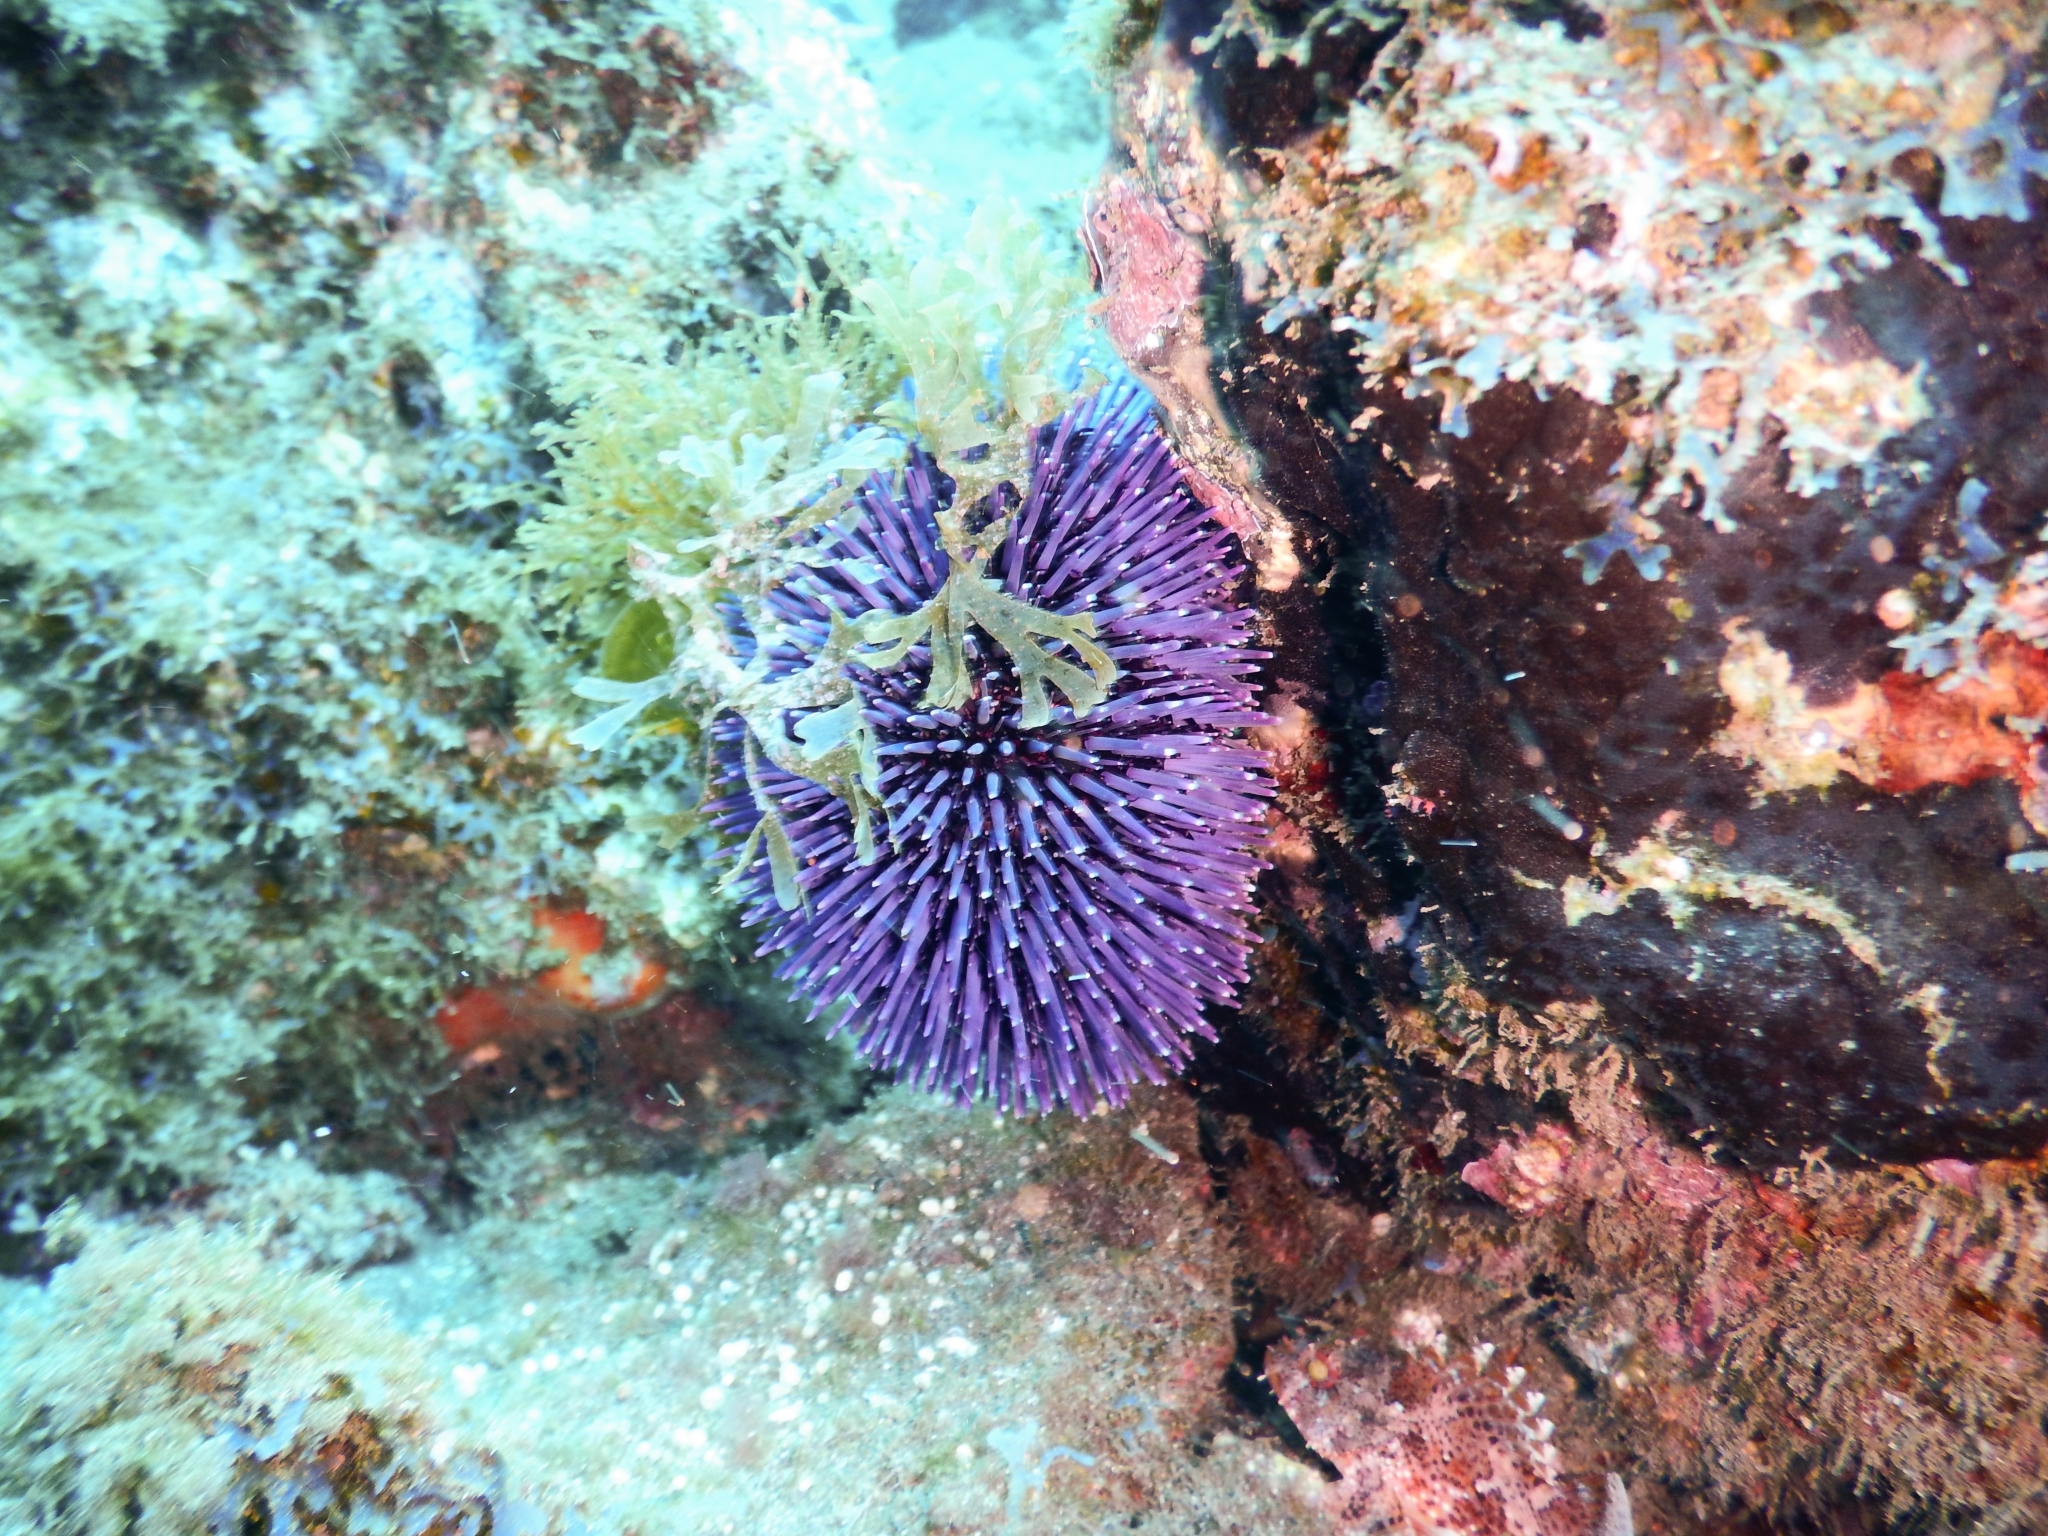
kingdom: Animalia
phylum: Echinodermata
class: Echinoidea
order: Camarodonta
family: Toxopneustidae
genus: Sphaerechinus
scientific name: Sphaerechinus granularis
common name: Violet sea urchin
